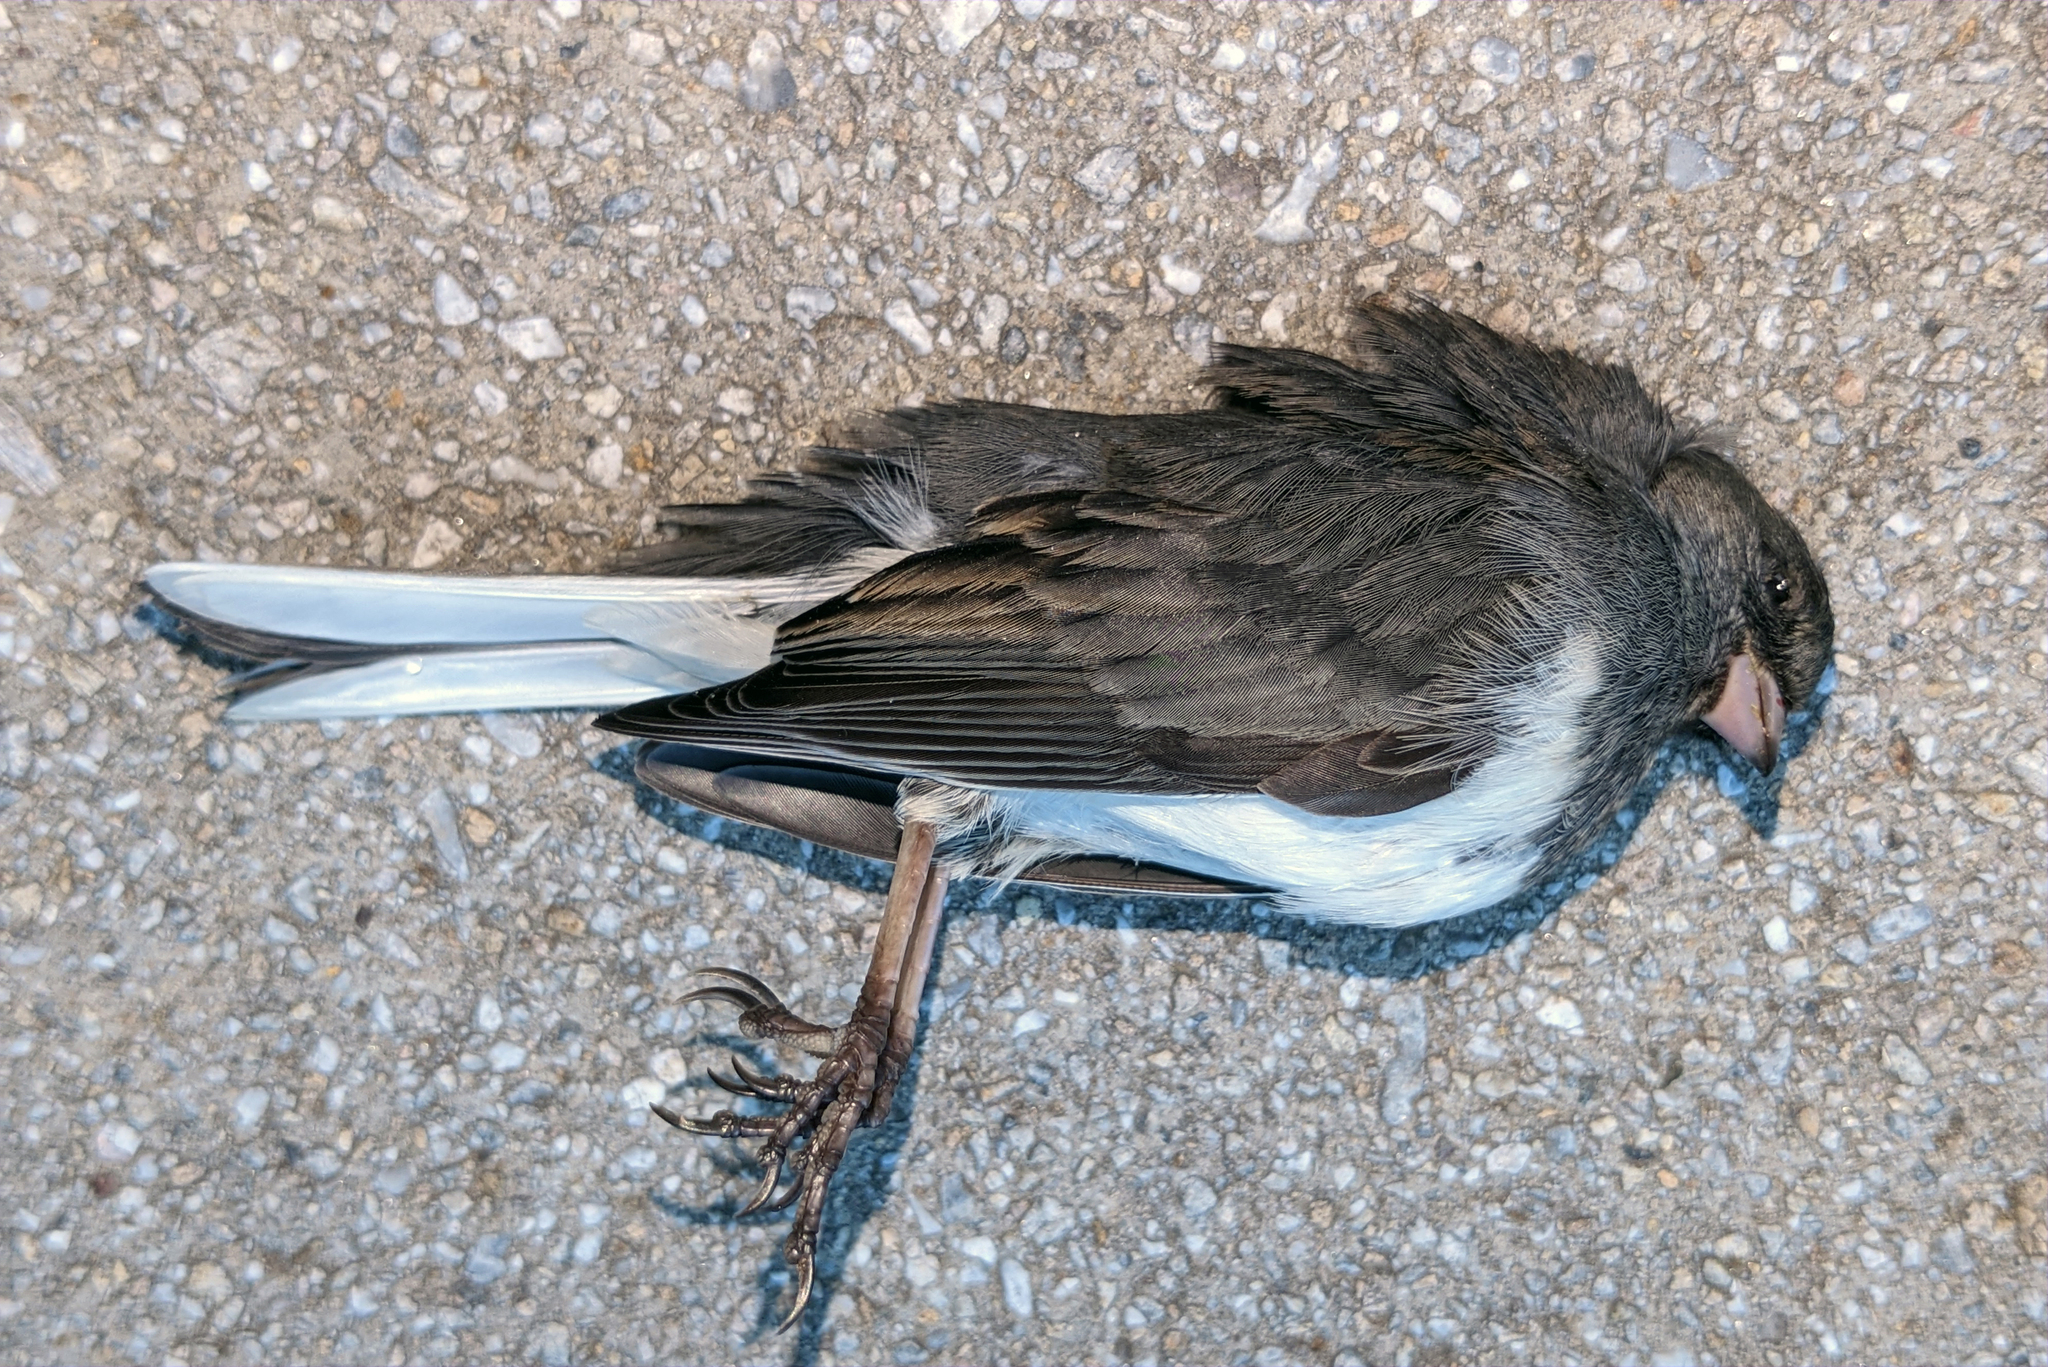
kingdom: Animalia
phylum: Chordata
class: Aves
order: Passeriformes
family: Passerellidae
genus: Junco
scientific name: Junco hyemalis
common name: Dark-eyed junco
